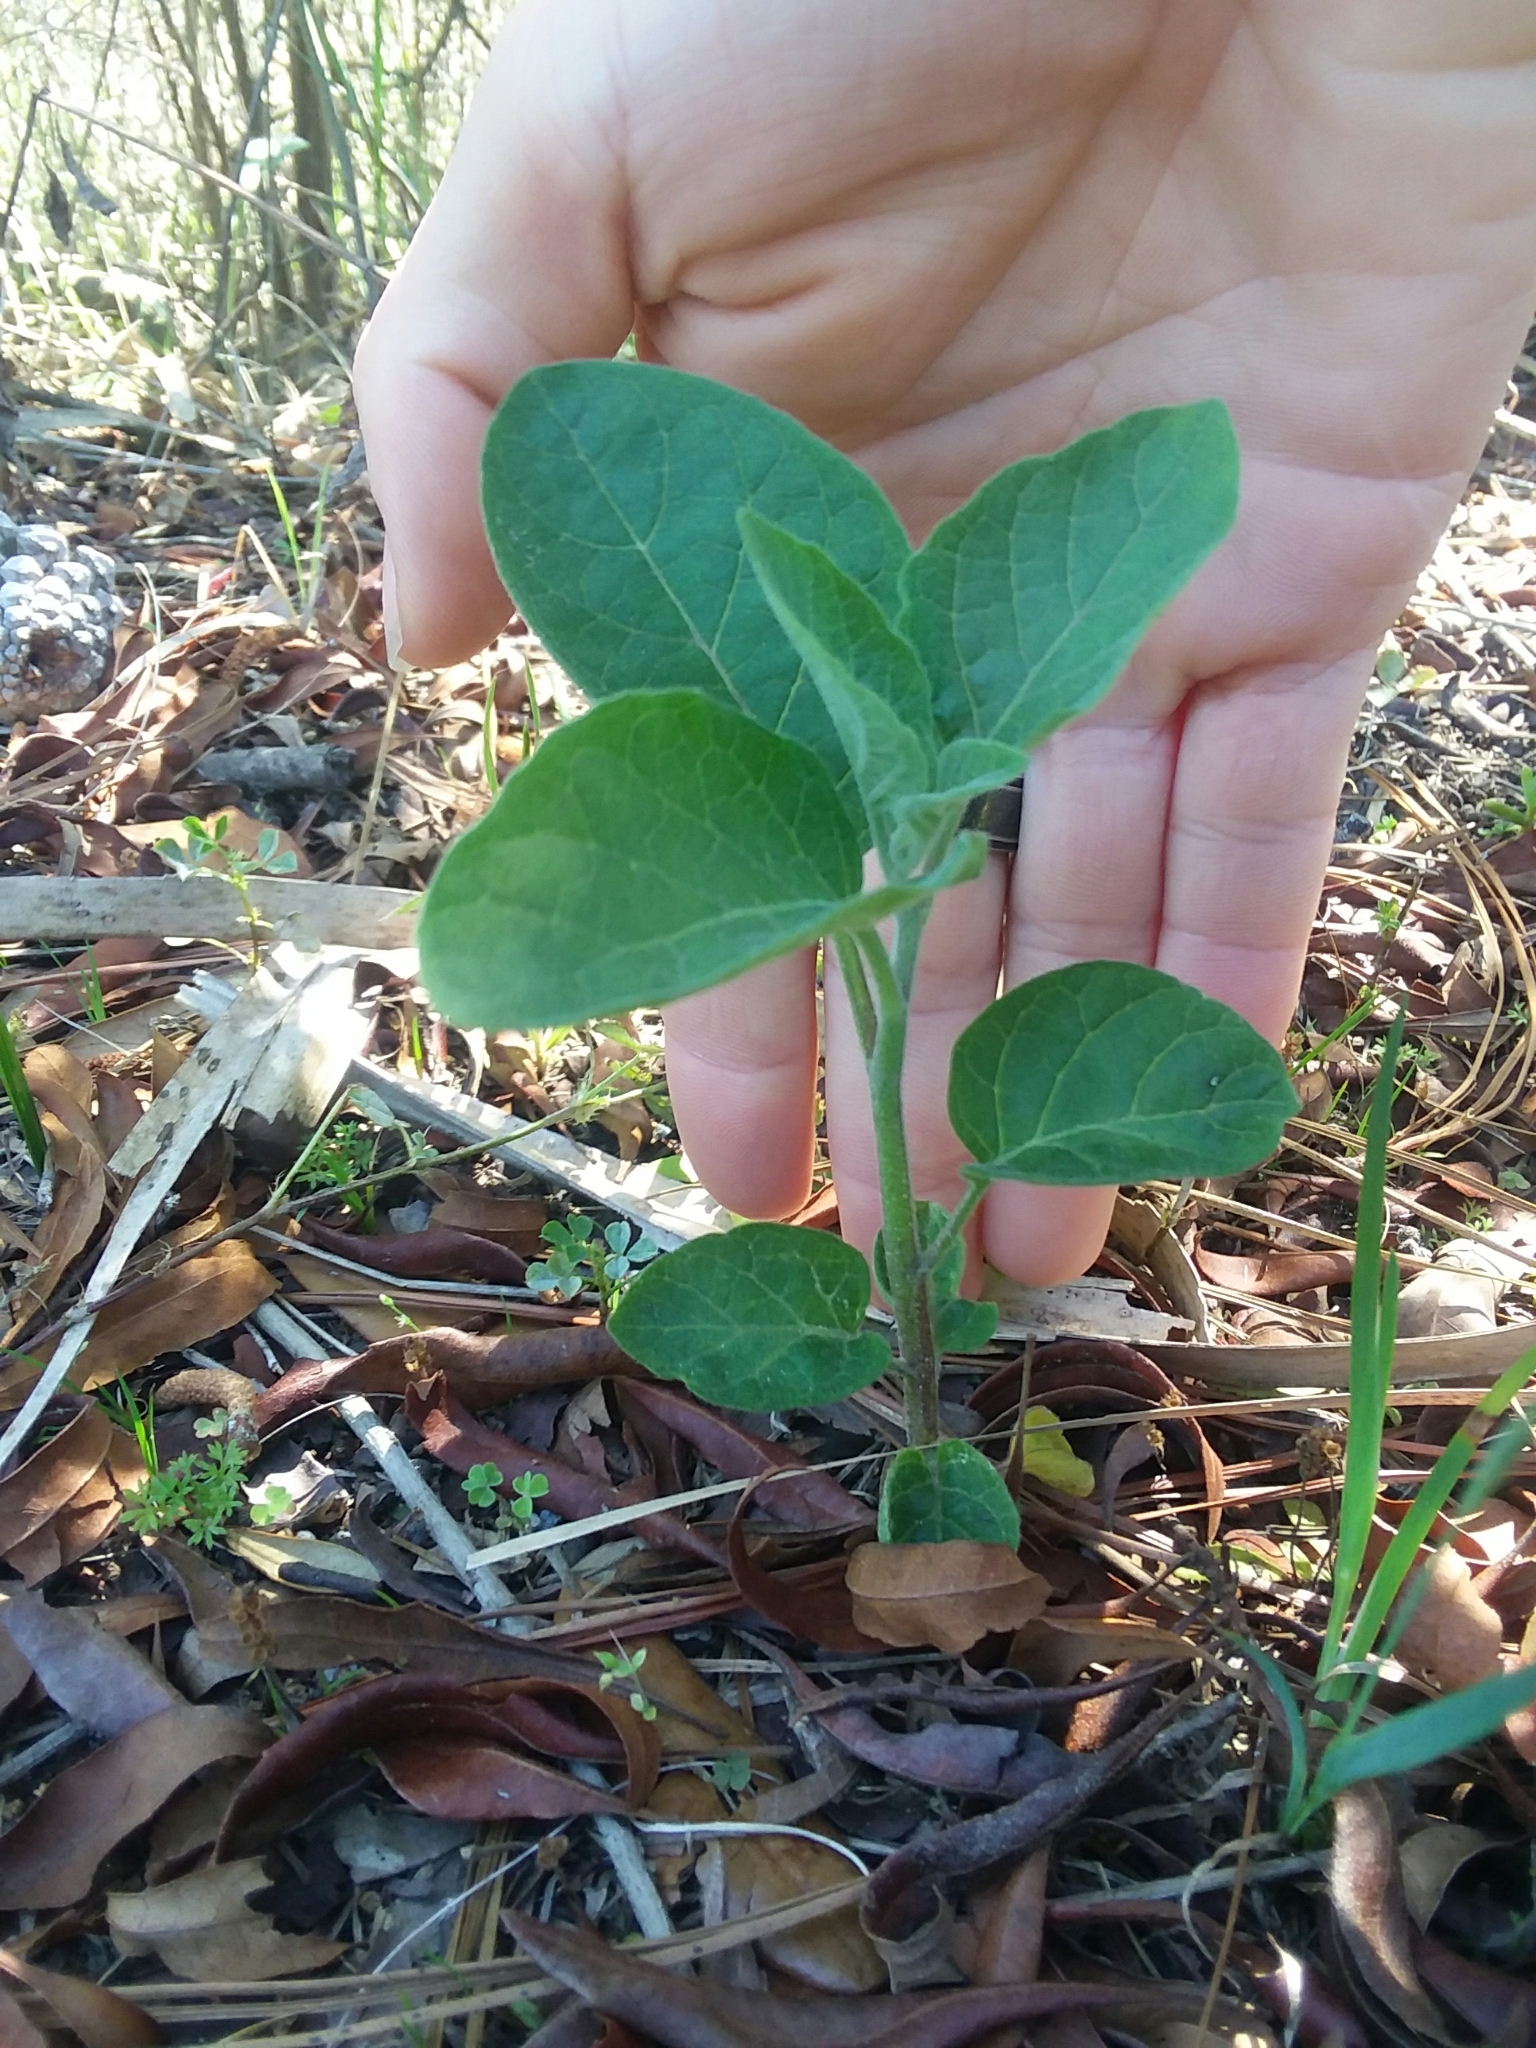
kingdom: Plantae
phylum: Tracheophyta
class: Magnoliopsida
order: Solanales
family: Solanaceae
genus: Physalis
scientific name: Physalis walteri
